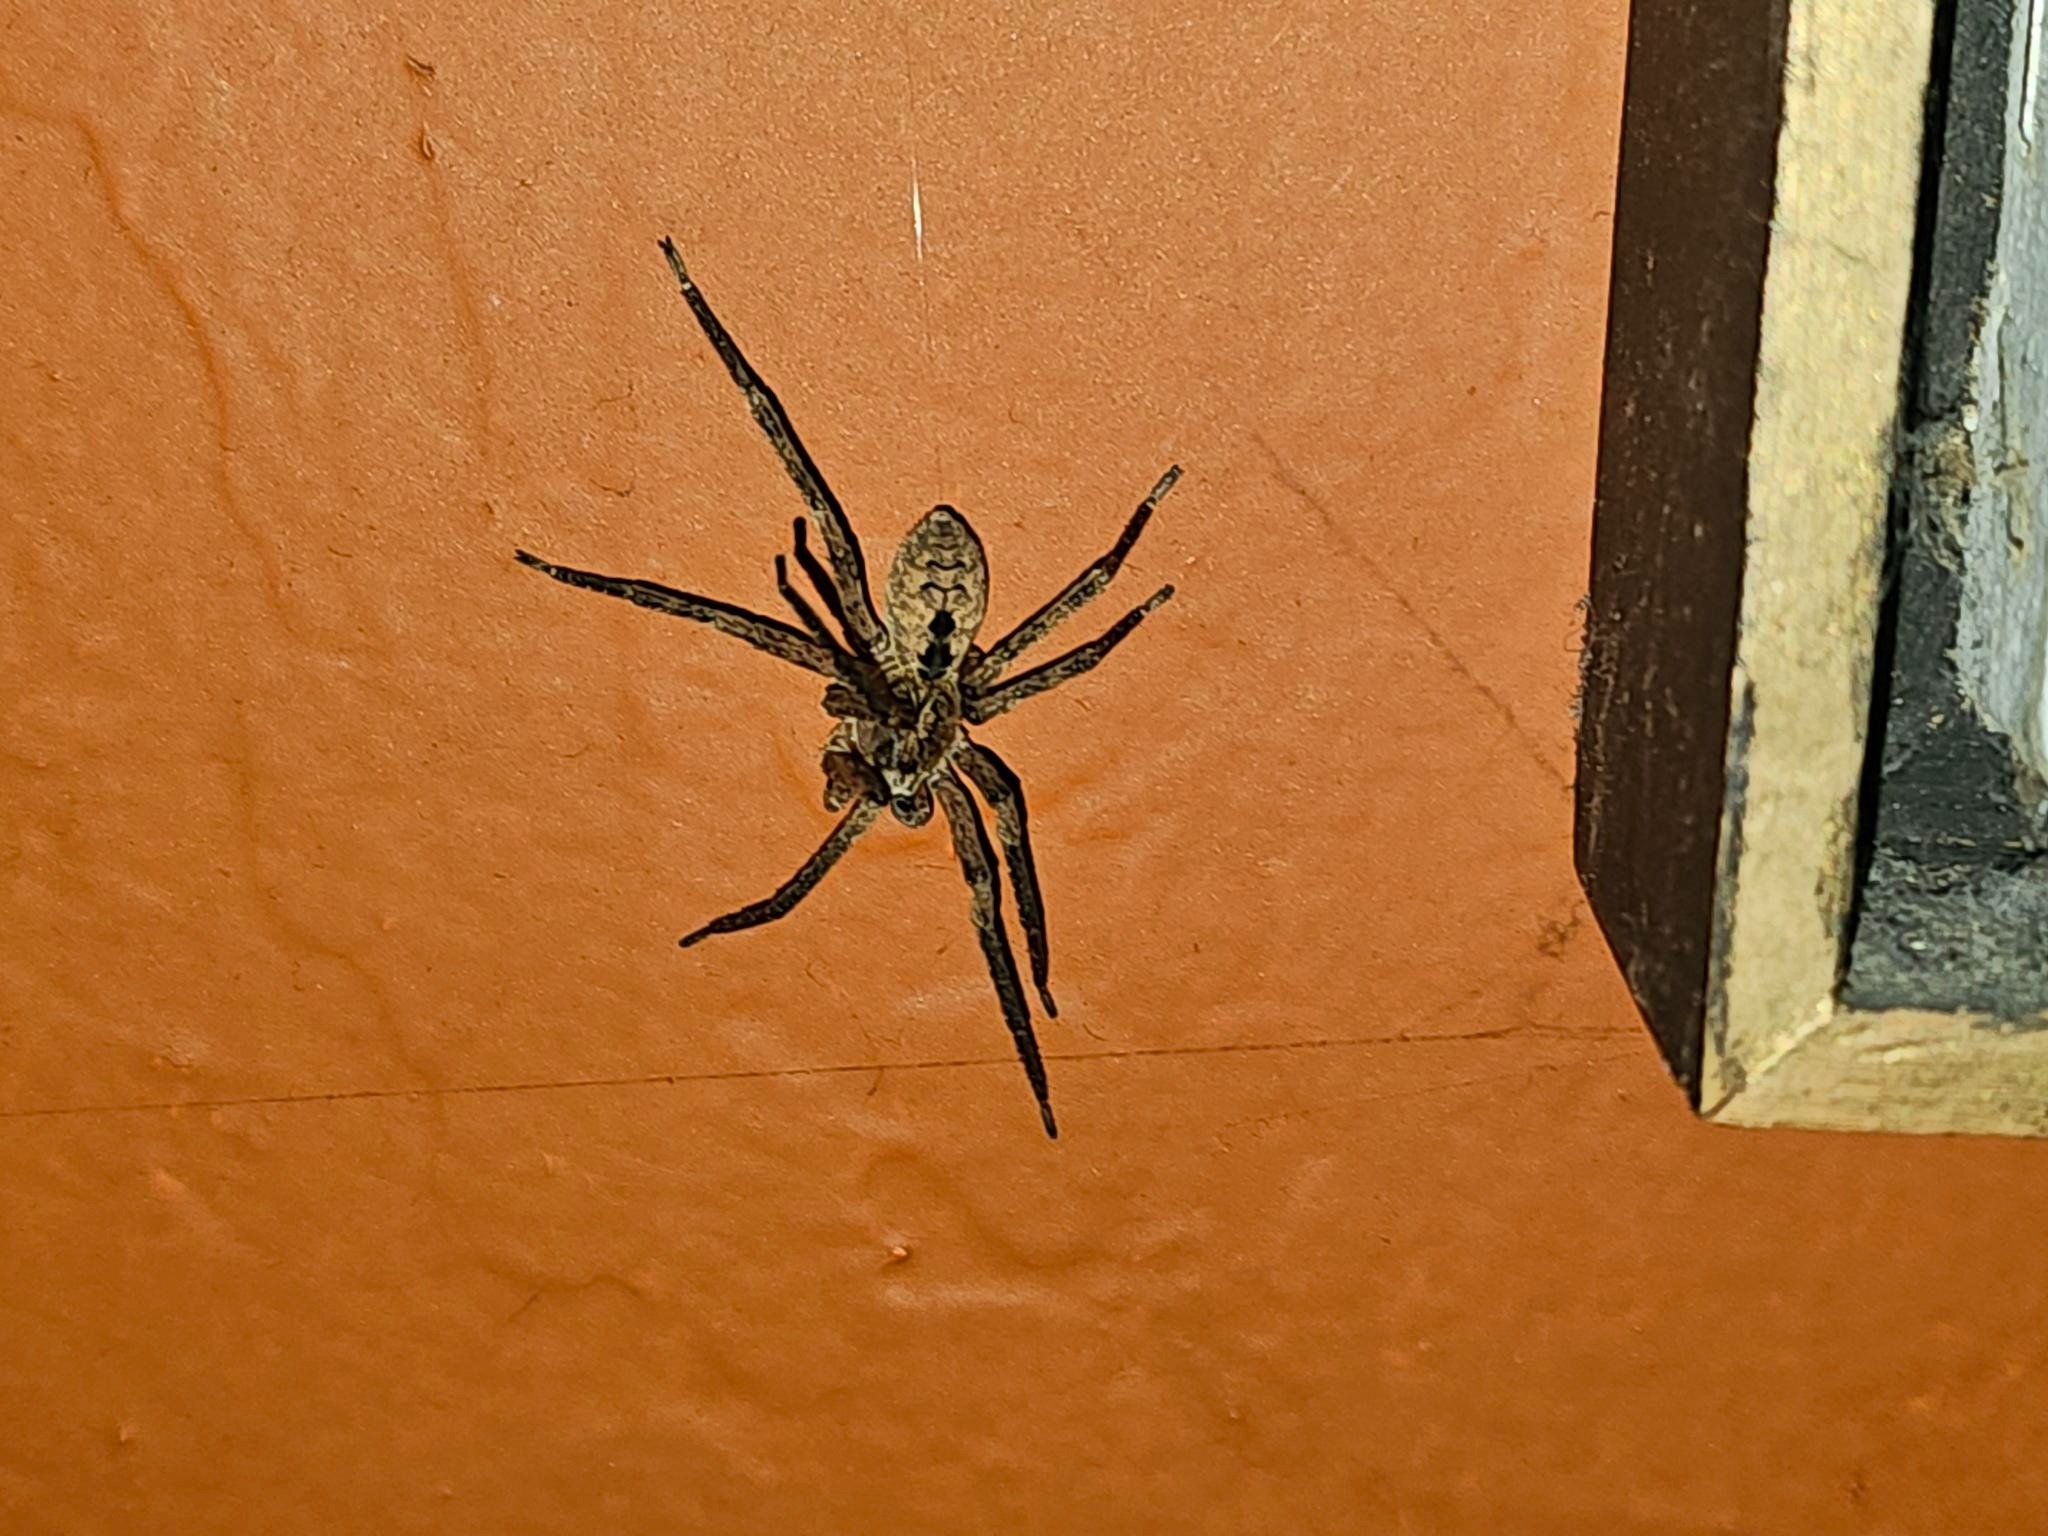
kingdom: Animalia
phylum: Arthropoda
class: Arachnida
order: Araneae
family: Zoropsidae
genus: Zoropsis
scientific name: Zoropsis spinimana
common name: Zoropsid spider
